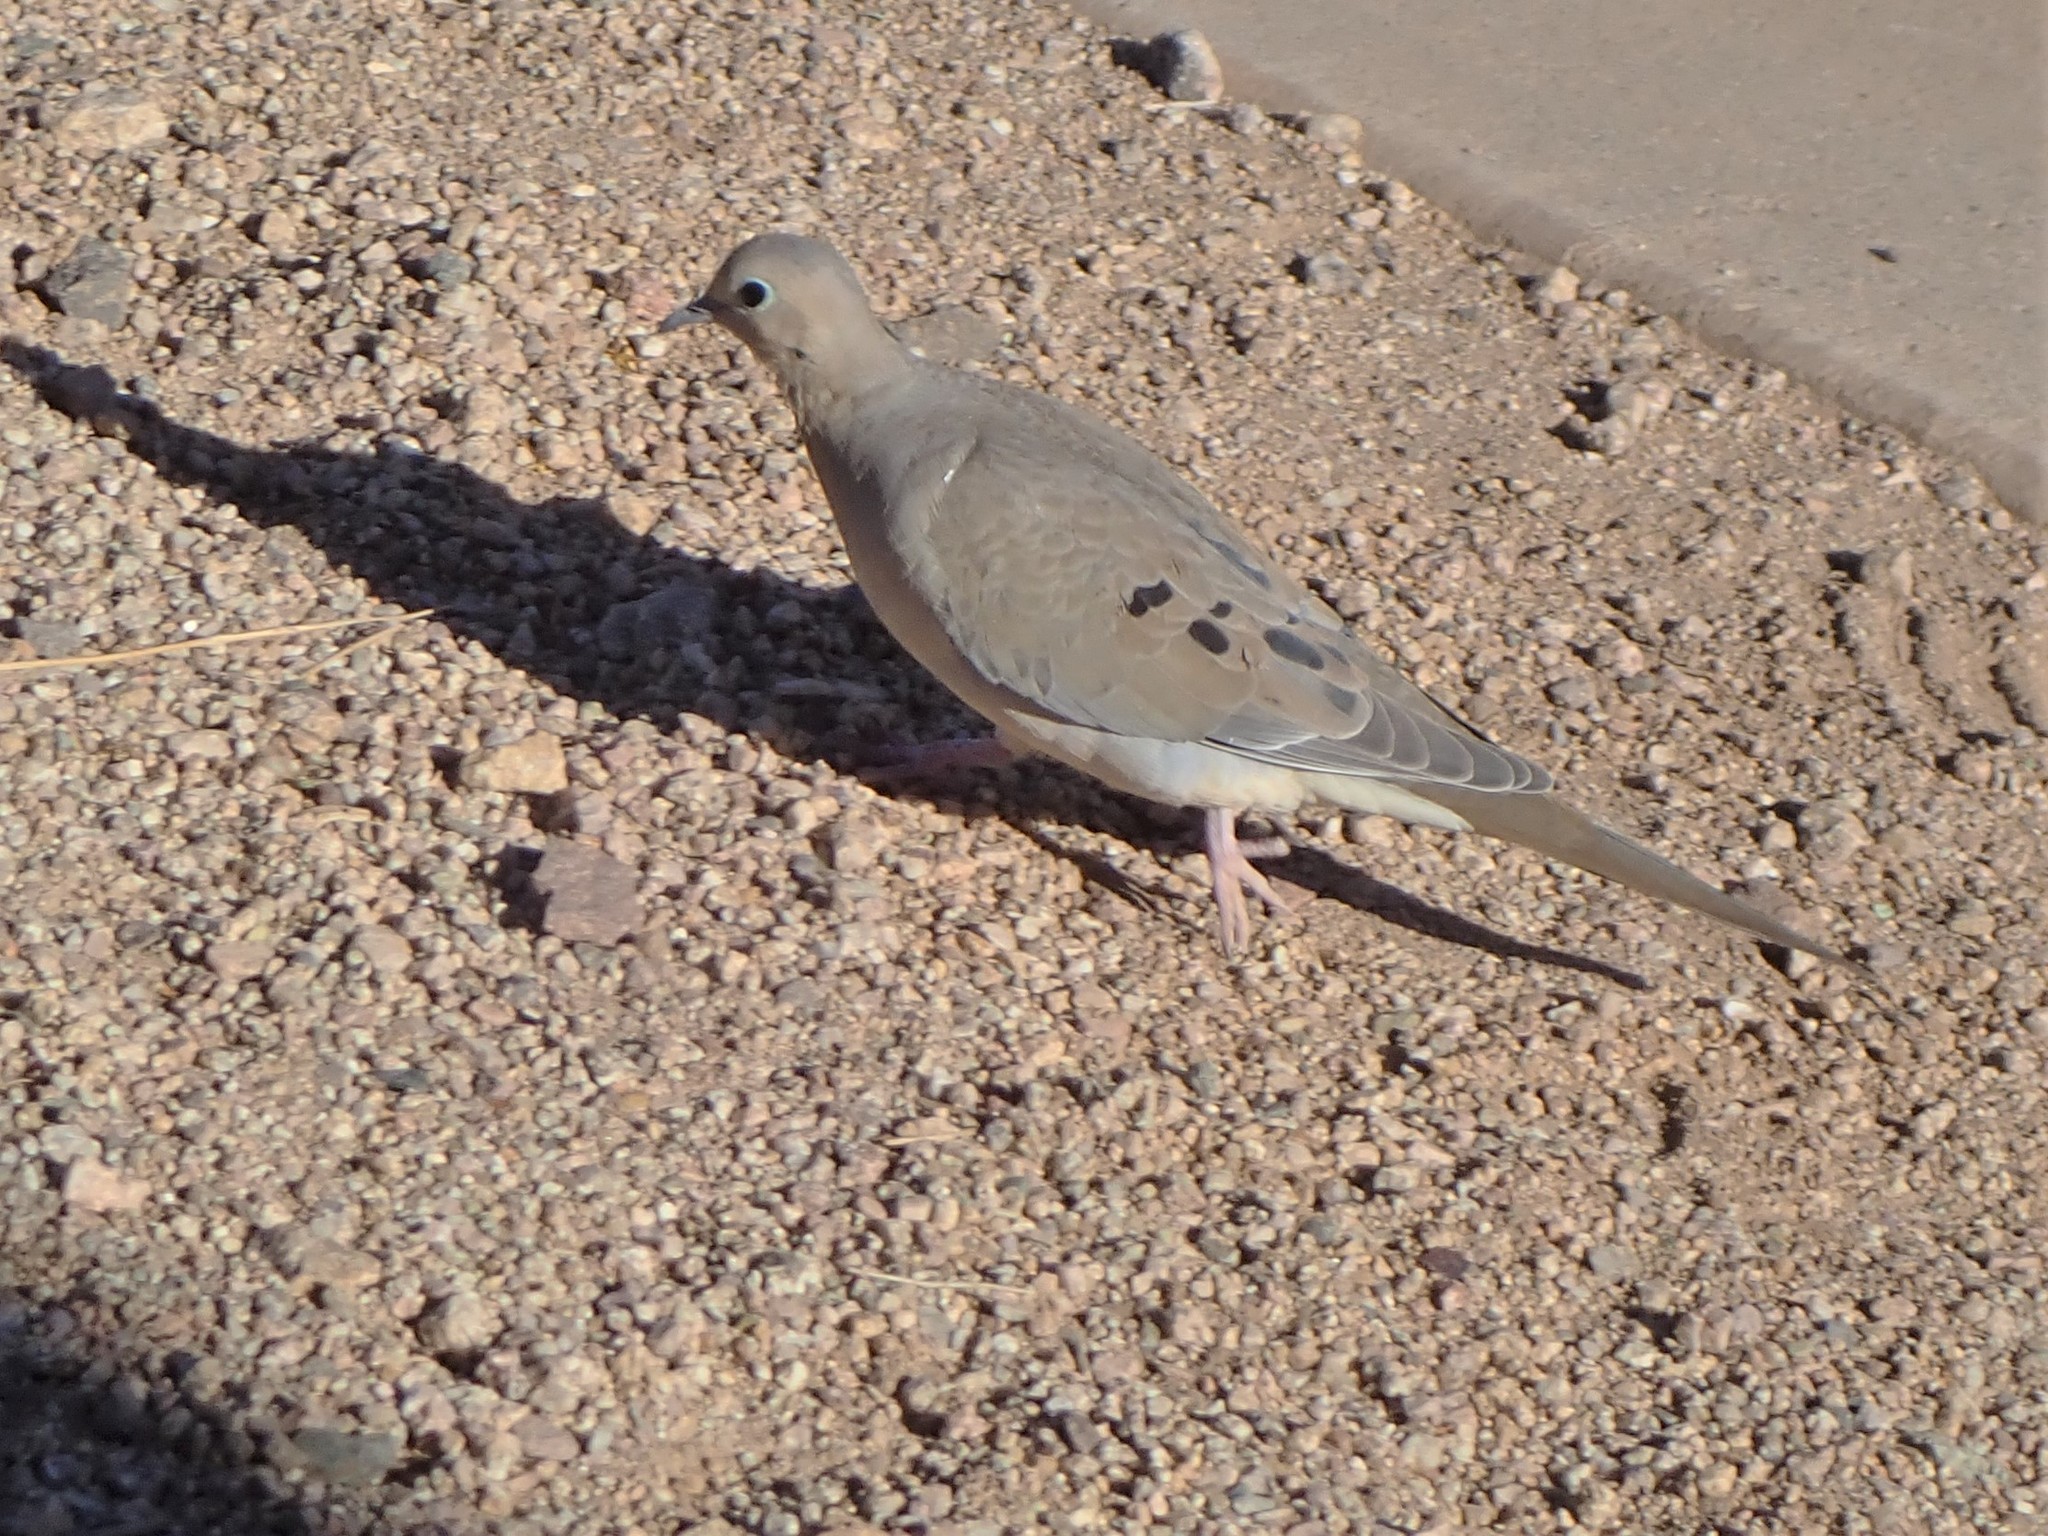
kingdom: Animalia
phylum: Chordata
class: Aves
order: Columbiformes
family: Columbidae
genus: Zenaida
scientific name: Zenaida macroura
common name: Mourning dove
